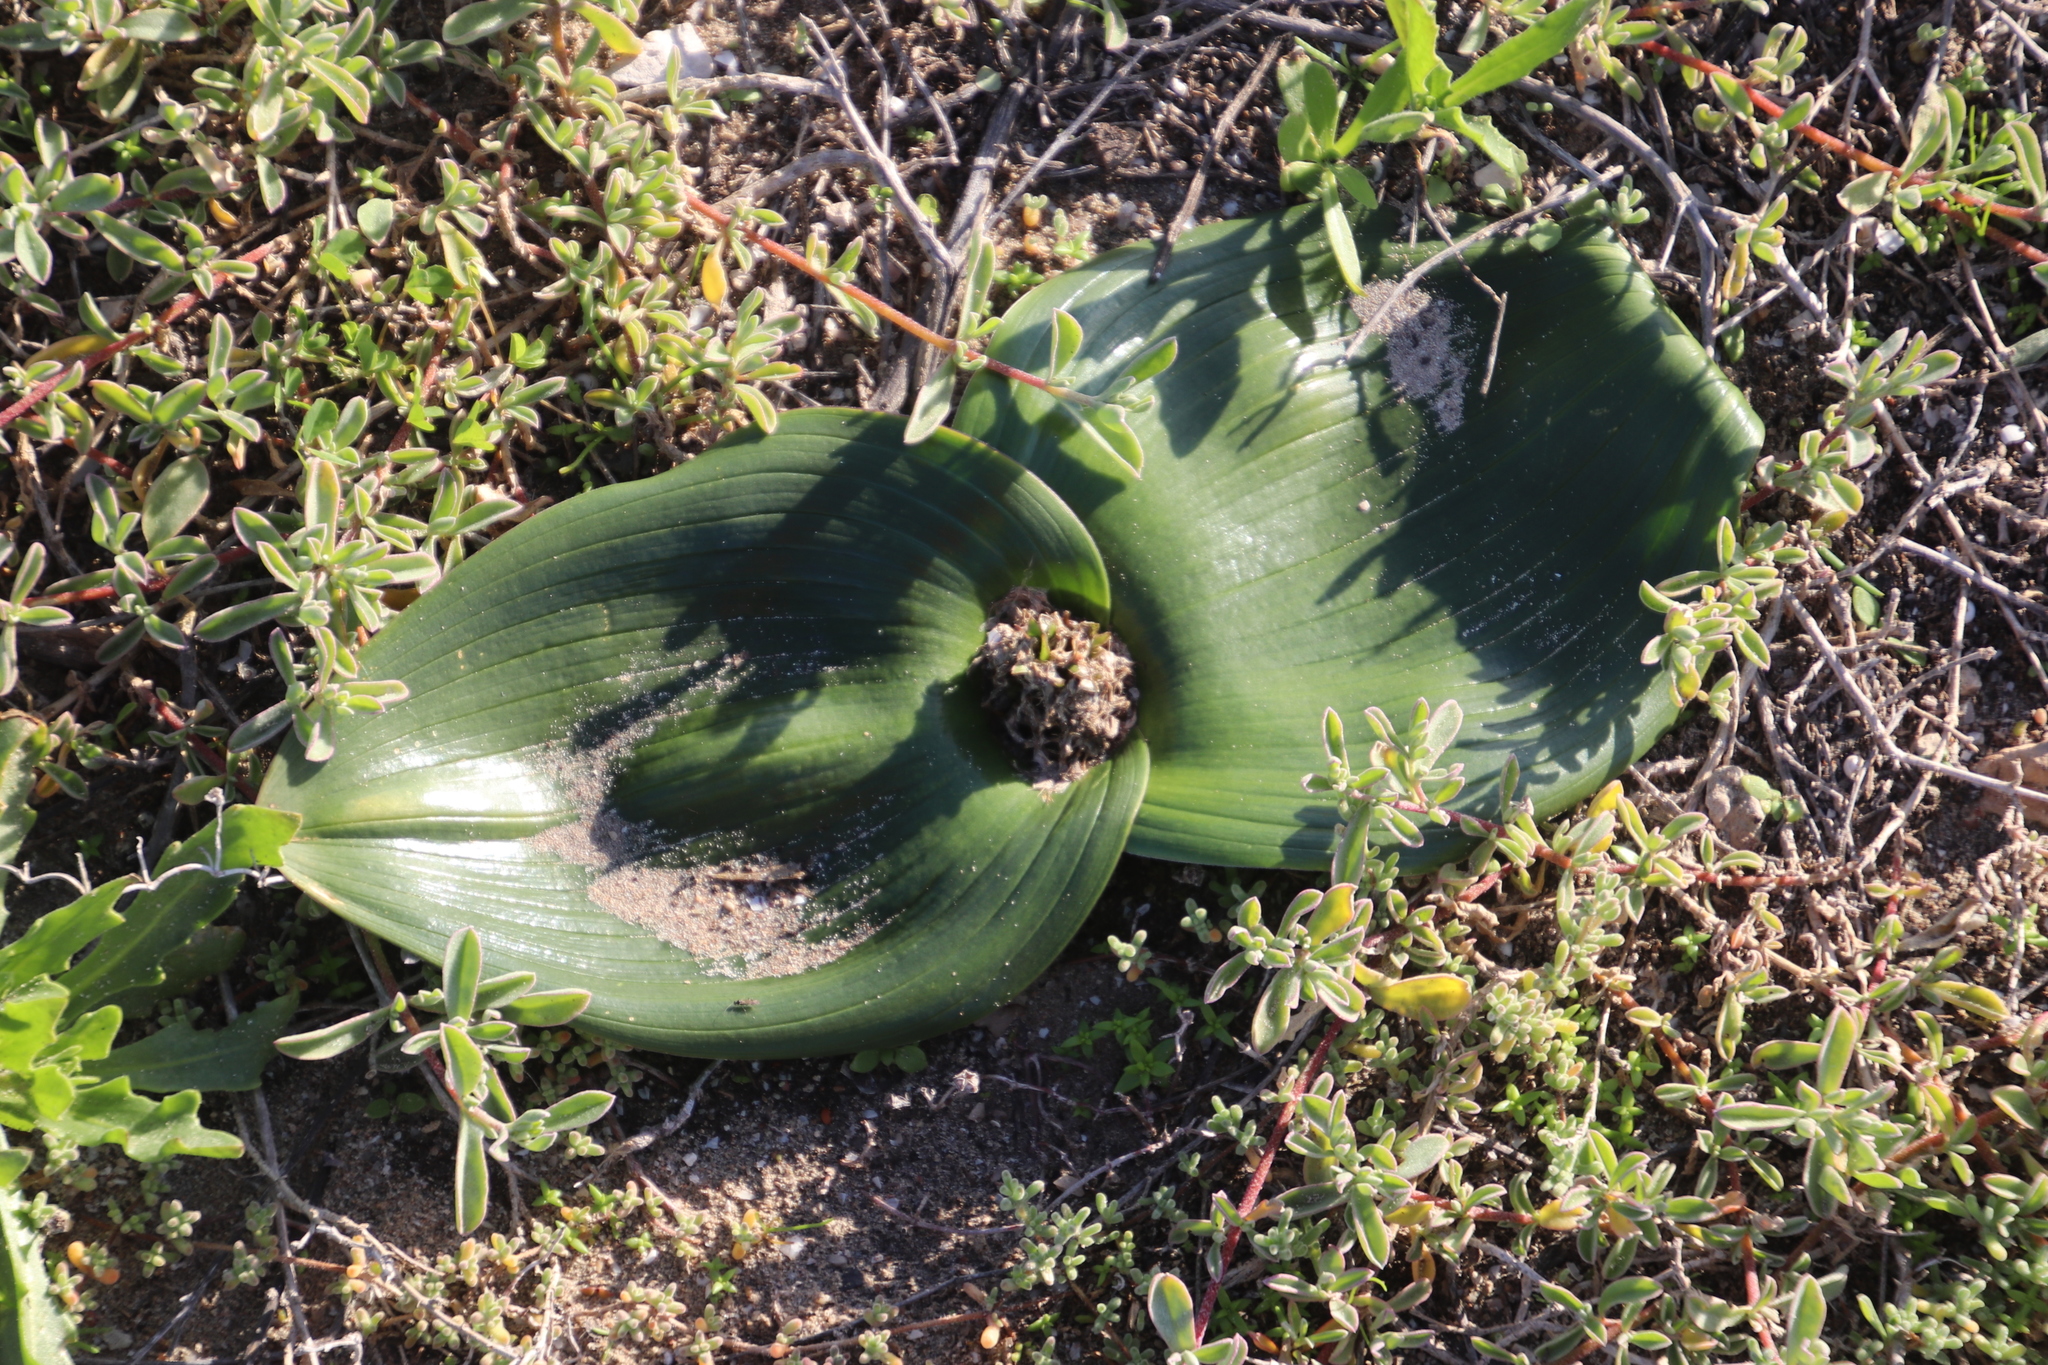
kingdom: Plantae
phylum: Tracheophyta
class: Liliopsida
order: Asparagales
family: Asparagaceae
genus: Daubenya
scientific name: Daubenya zeyheri
